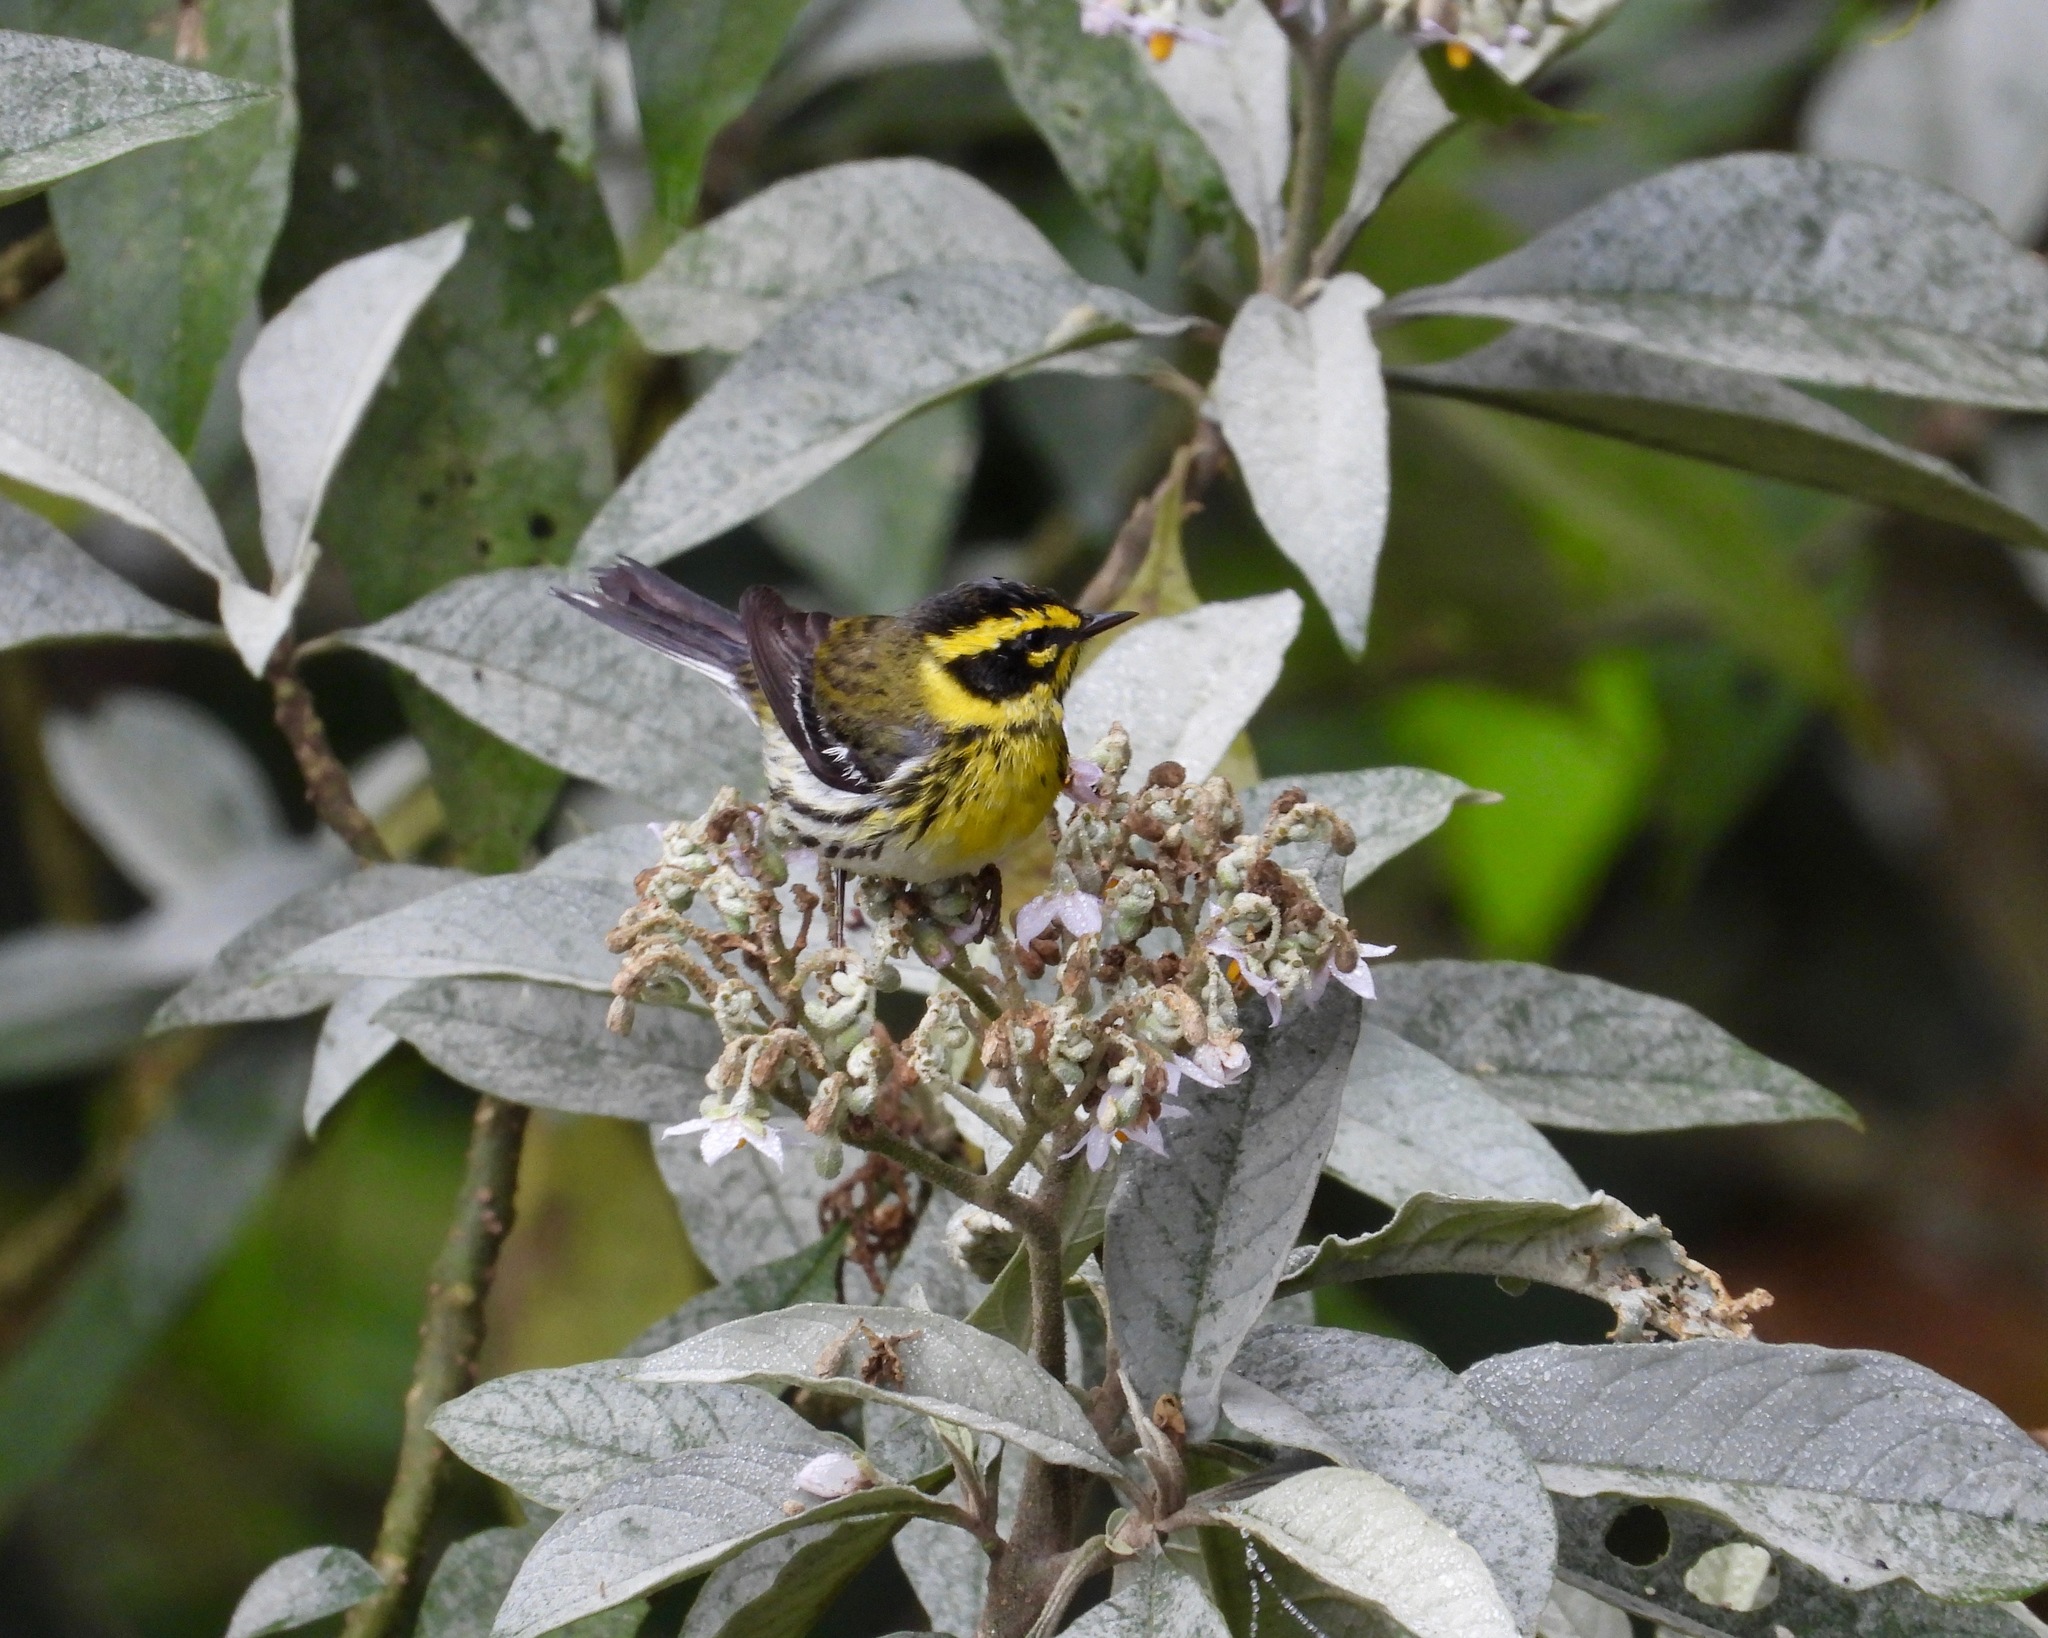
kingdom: Animalia
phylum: Chordata
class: Aves
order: Passeriformes
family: Parulidae
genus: Setophaga
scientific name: Setophaga townsendi
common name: Townsend's warbler
